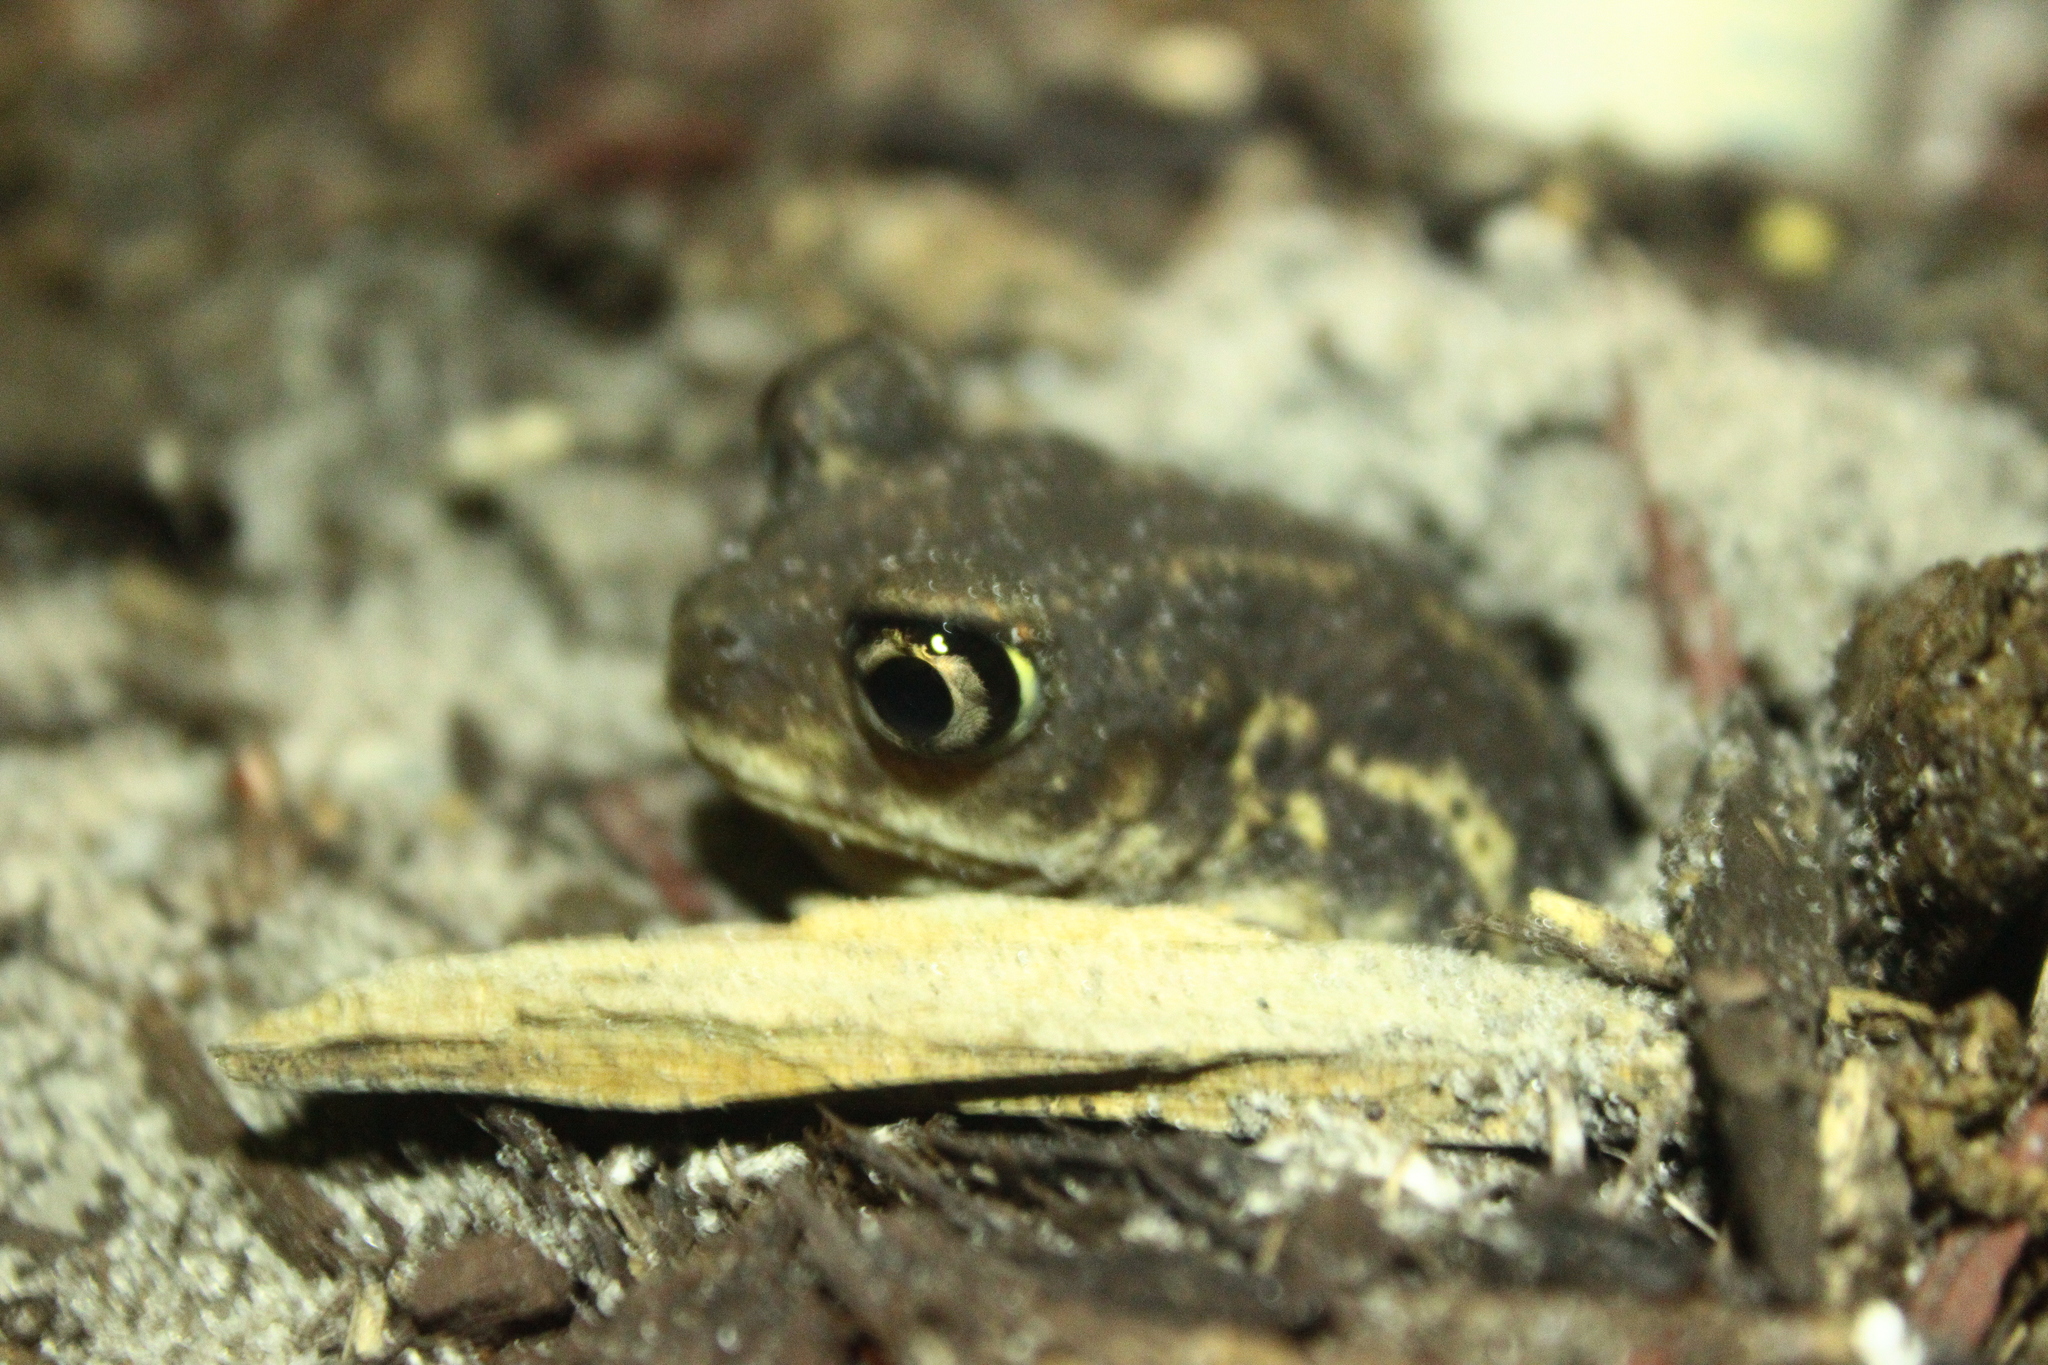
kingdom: Animalia
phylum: Chordata
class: Amphibia
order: Anura
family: Scaphiopodidae
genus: Scaphiopus
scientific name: Scaphiopus holbrookii
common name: Eastern spadefoot toad
